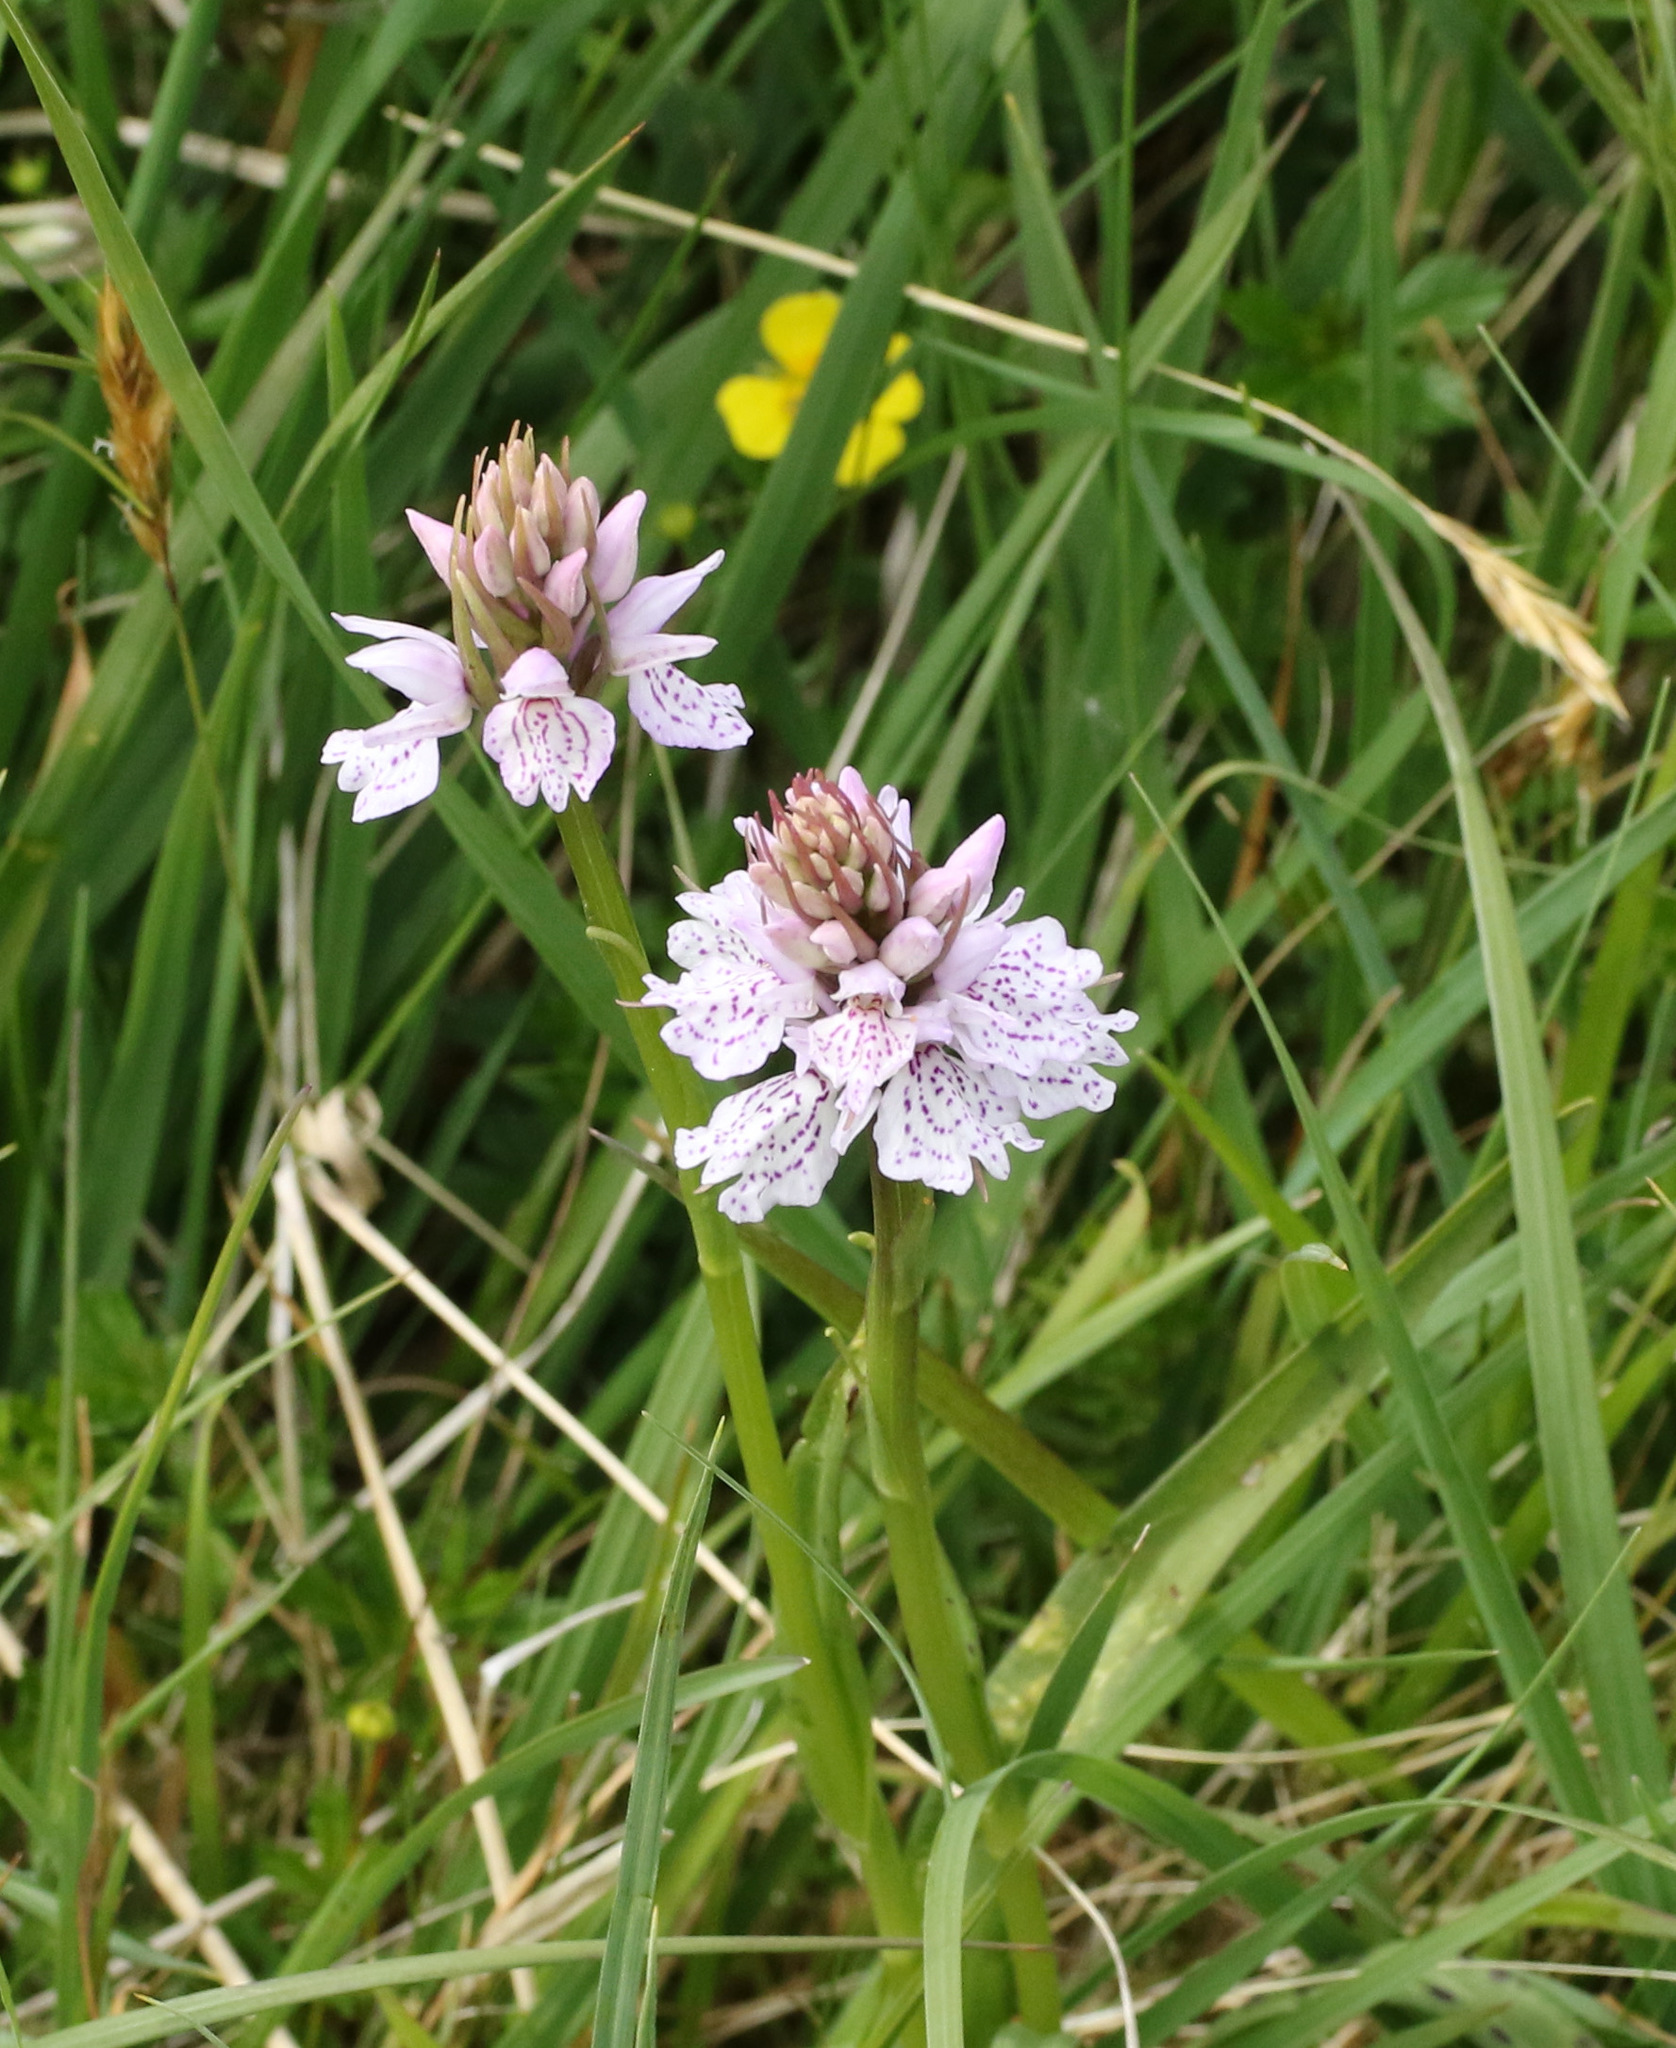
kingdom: Plantae
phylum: Tracheophyta
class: Liliopsida
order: Asparagales
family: Orchidaceae
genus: Dactylorhiza
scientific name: Dactylorhiza maculata
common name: Heath spotted-orchid
